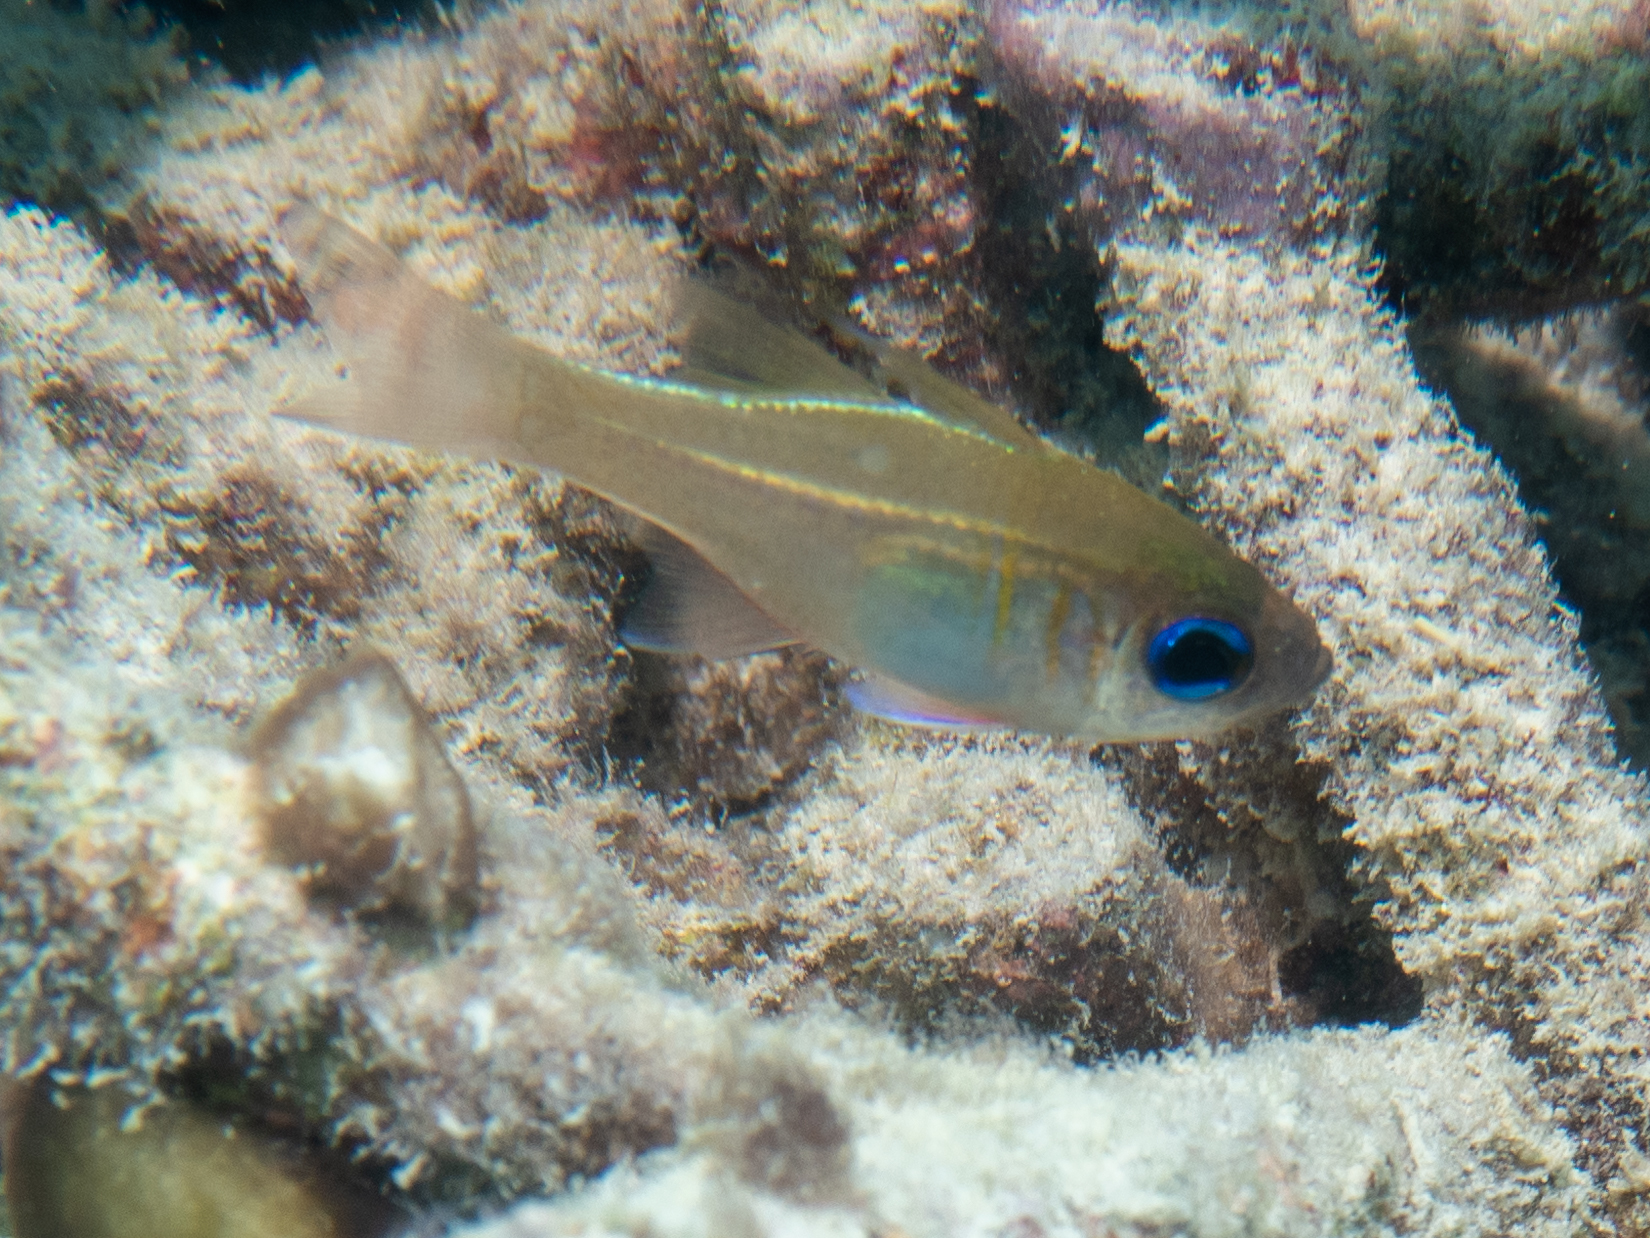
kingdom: Animalia
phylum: Chordata
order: Perciformes
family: Apogonidae
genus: Zoramia
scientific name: Zoramia leptacantha
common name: Threadfin cardinalfish
